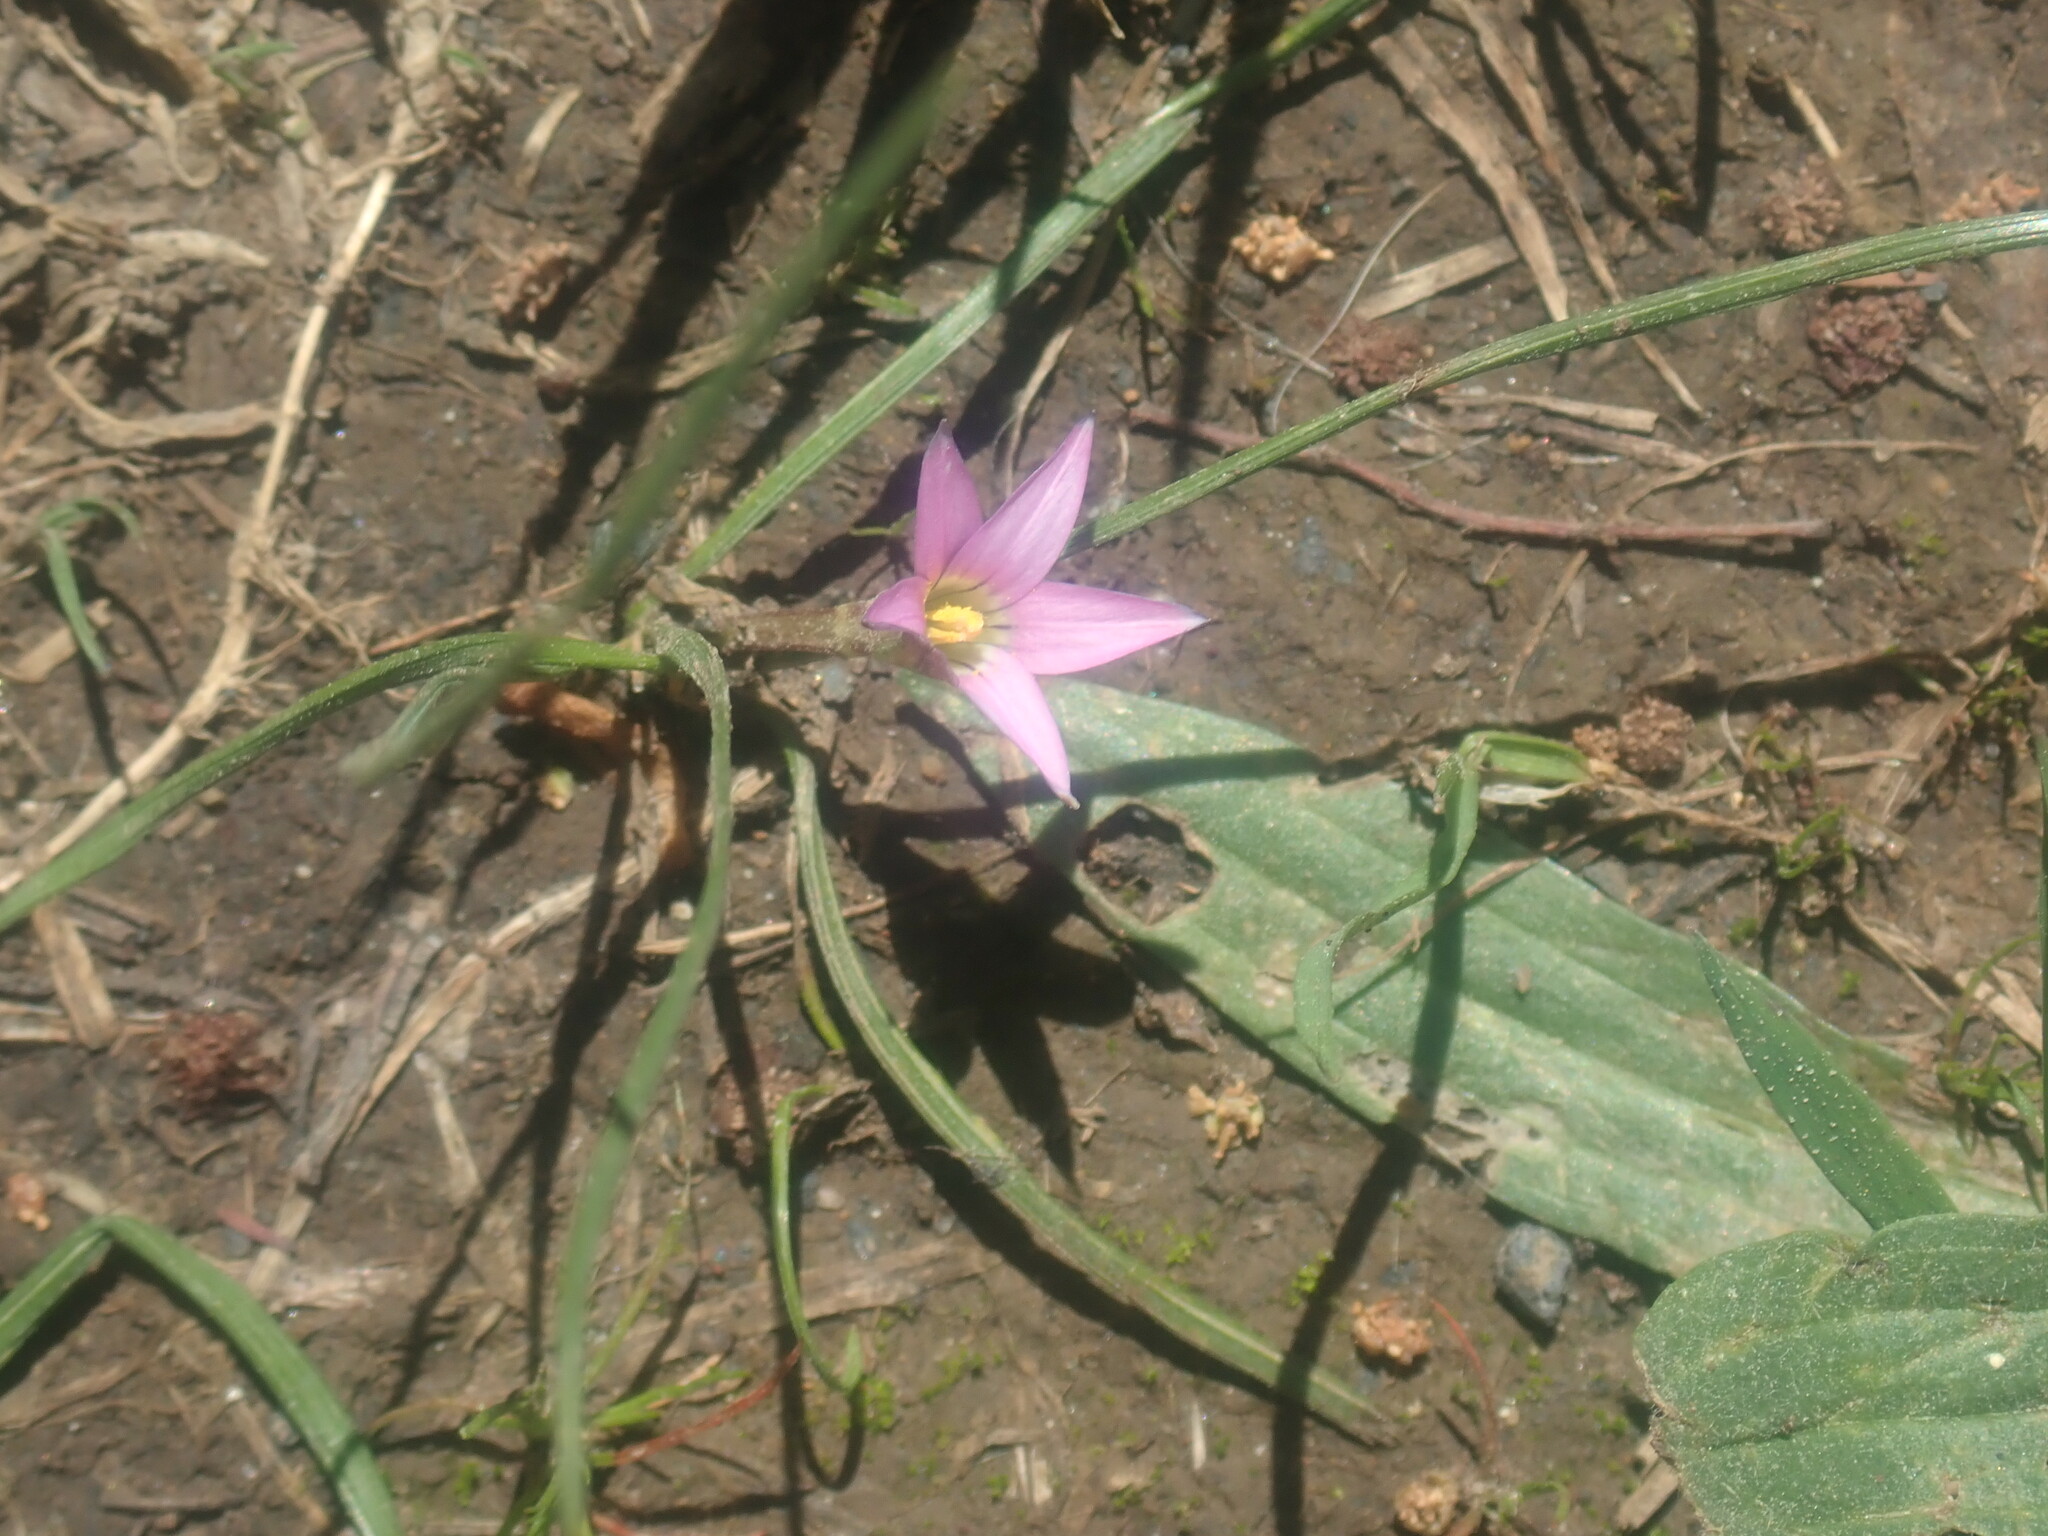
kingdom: Plantae
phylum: Tracheophyta
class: Liliopsida
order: Asparagales
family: Iridaceae
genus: Romulea
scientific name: Romulea rosea
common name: Oniongrass
